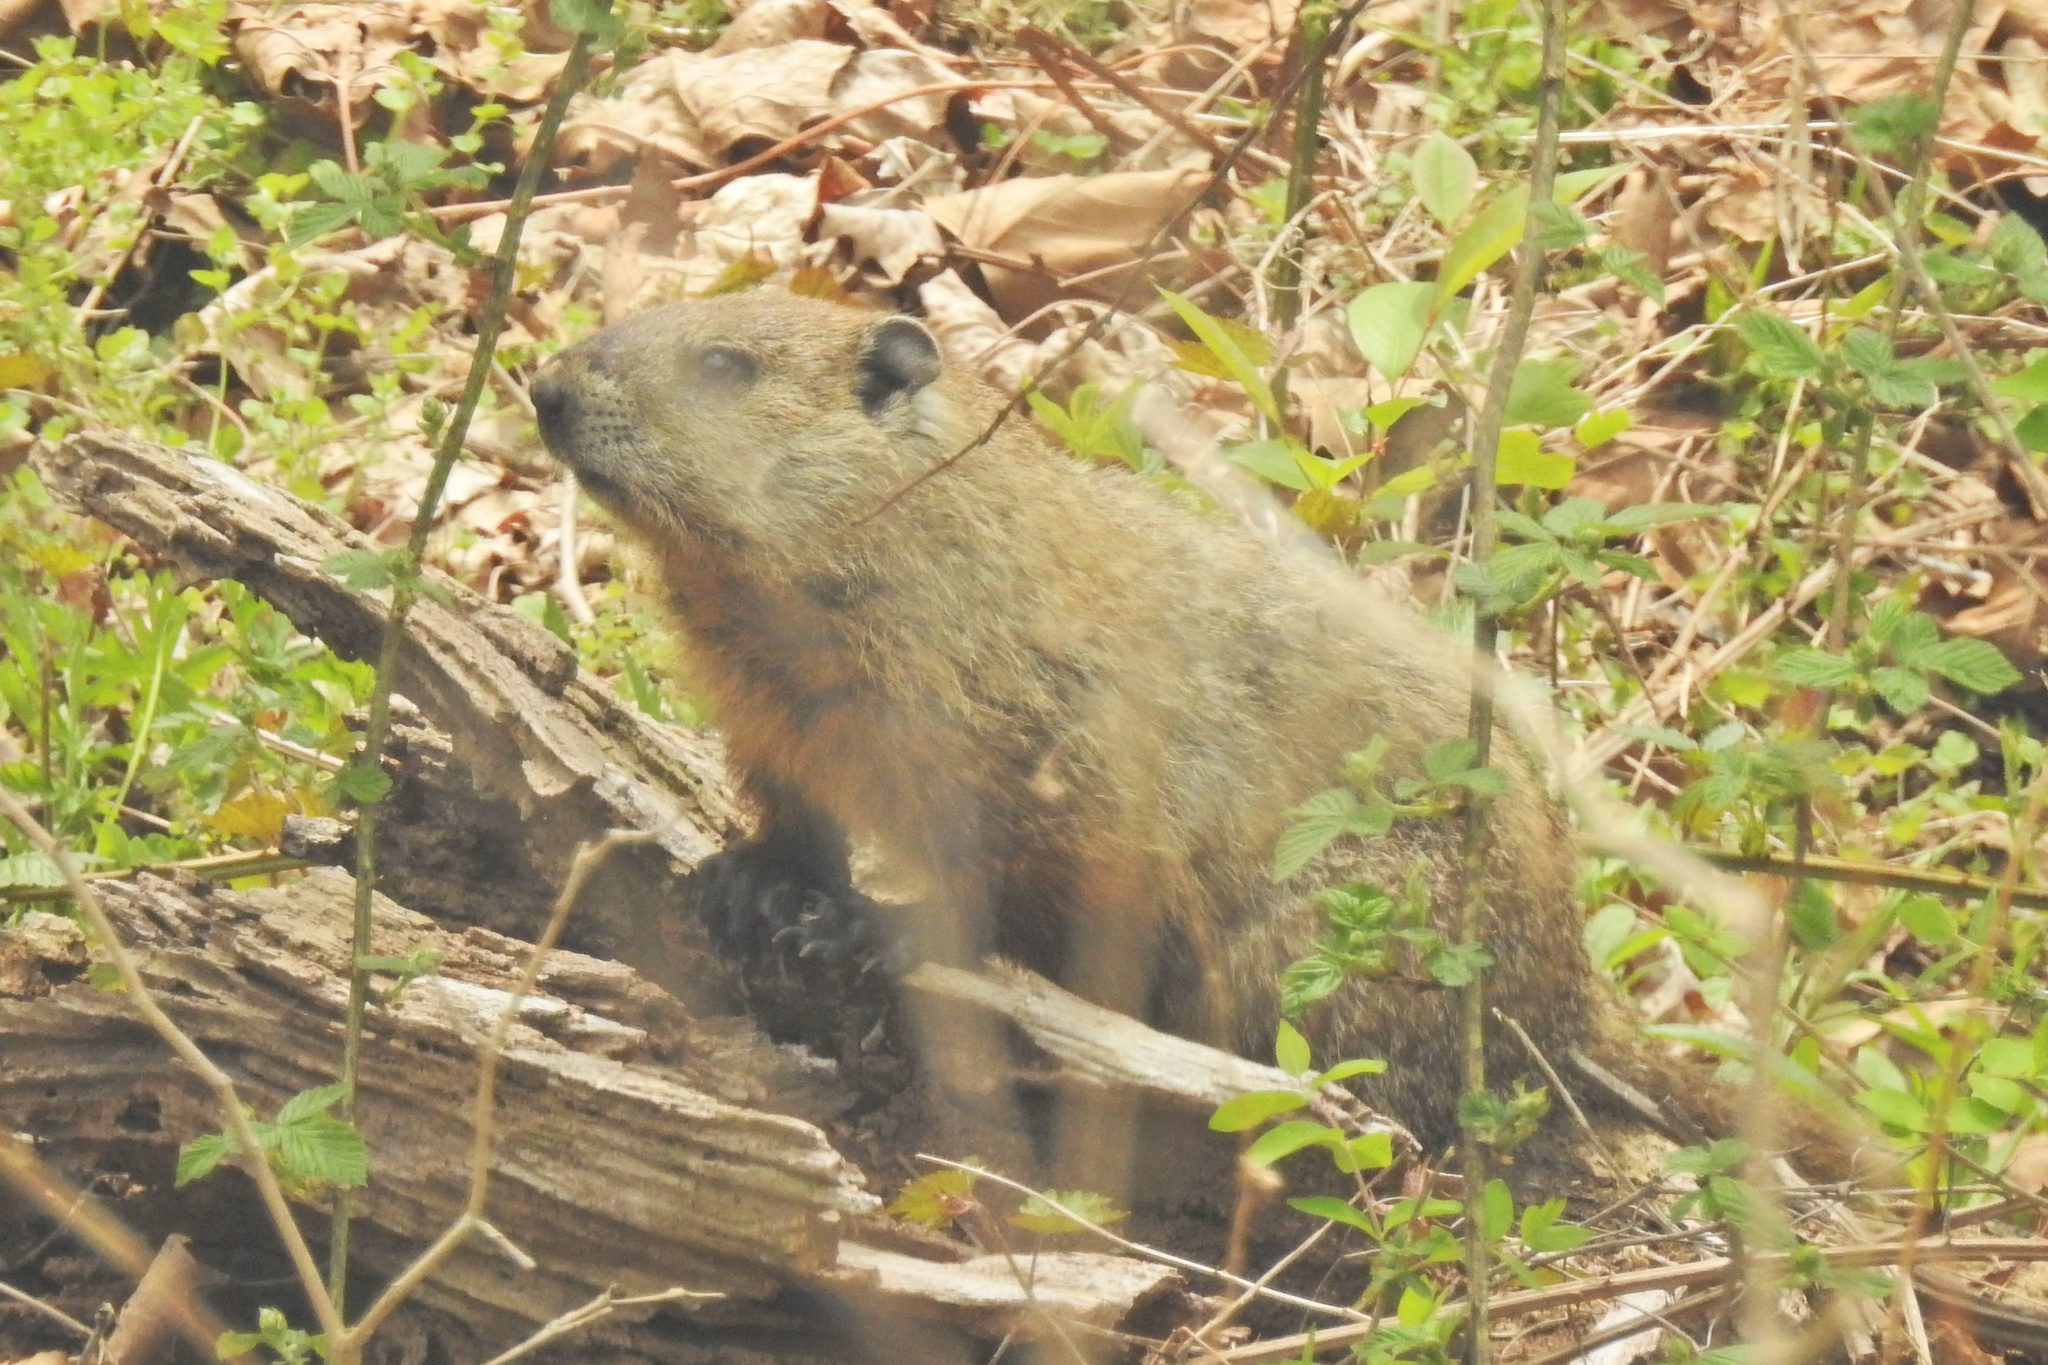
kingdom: Animalia
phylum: Chordata
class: Mammalia
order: Rodentia
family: Sciuridae
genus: Marmota
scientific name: Marmota monax
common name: Groundhog
